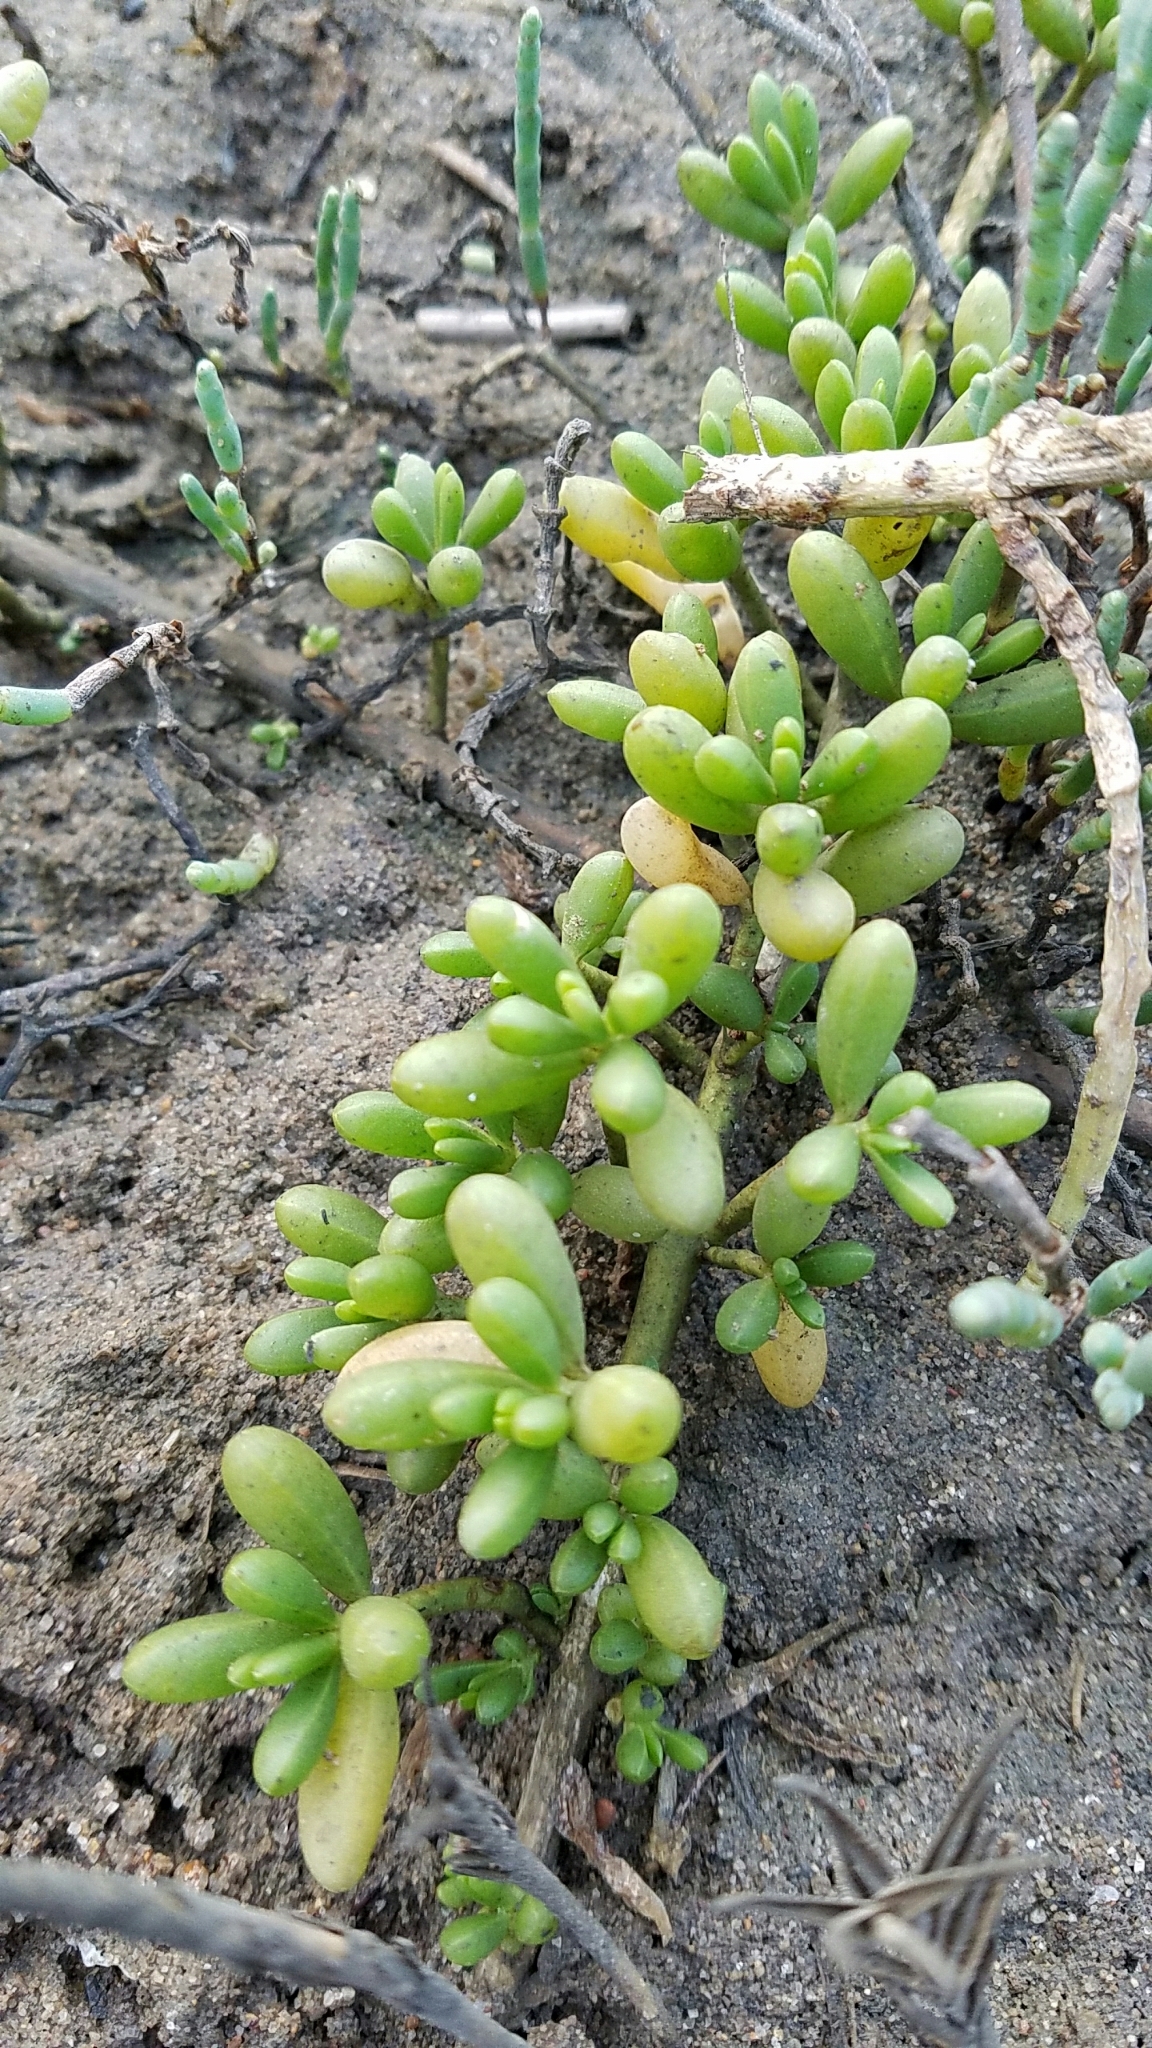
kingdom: Plantae
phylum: Tracheophyta
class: Magnoliopsida
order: Brassicales
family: Bataceae
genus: Batis
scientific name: Batis maritima
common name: Turtleweed
